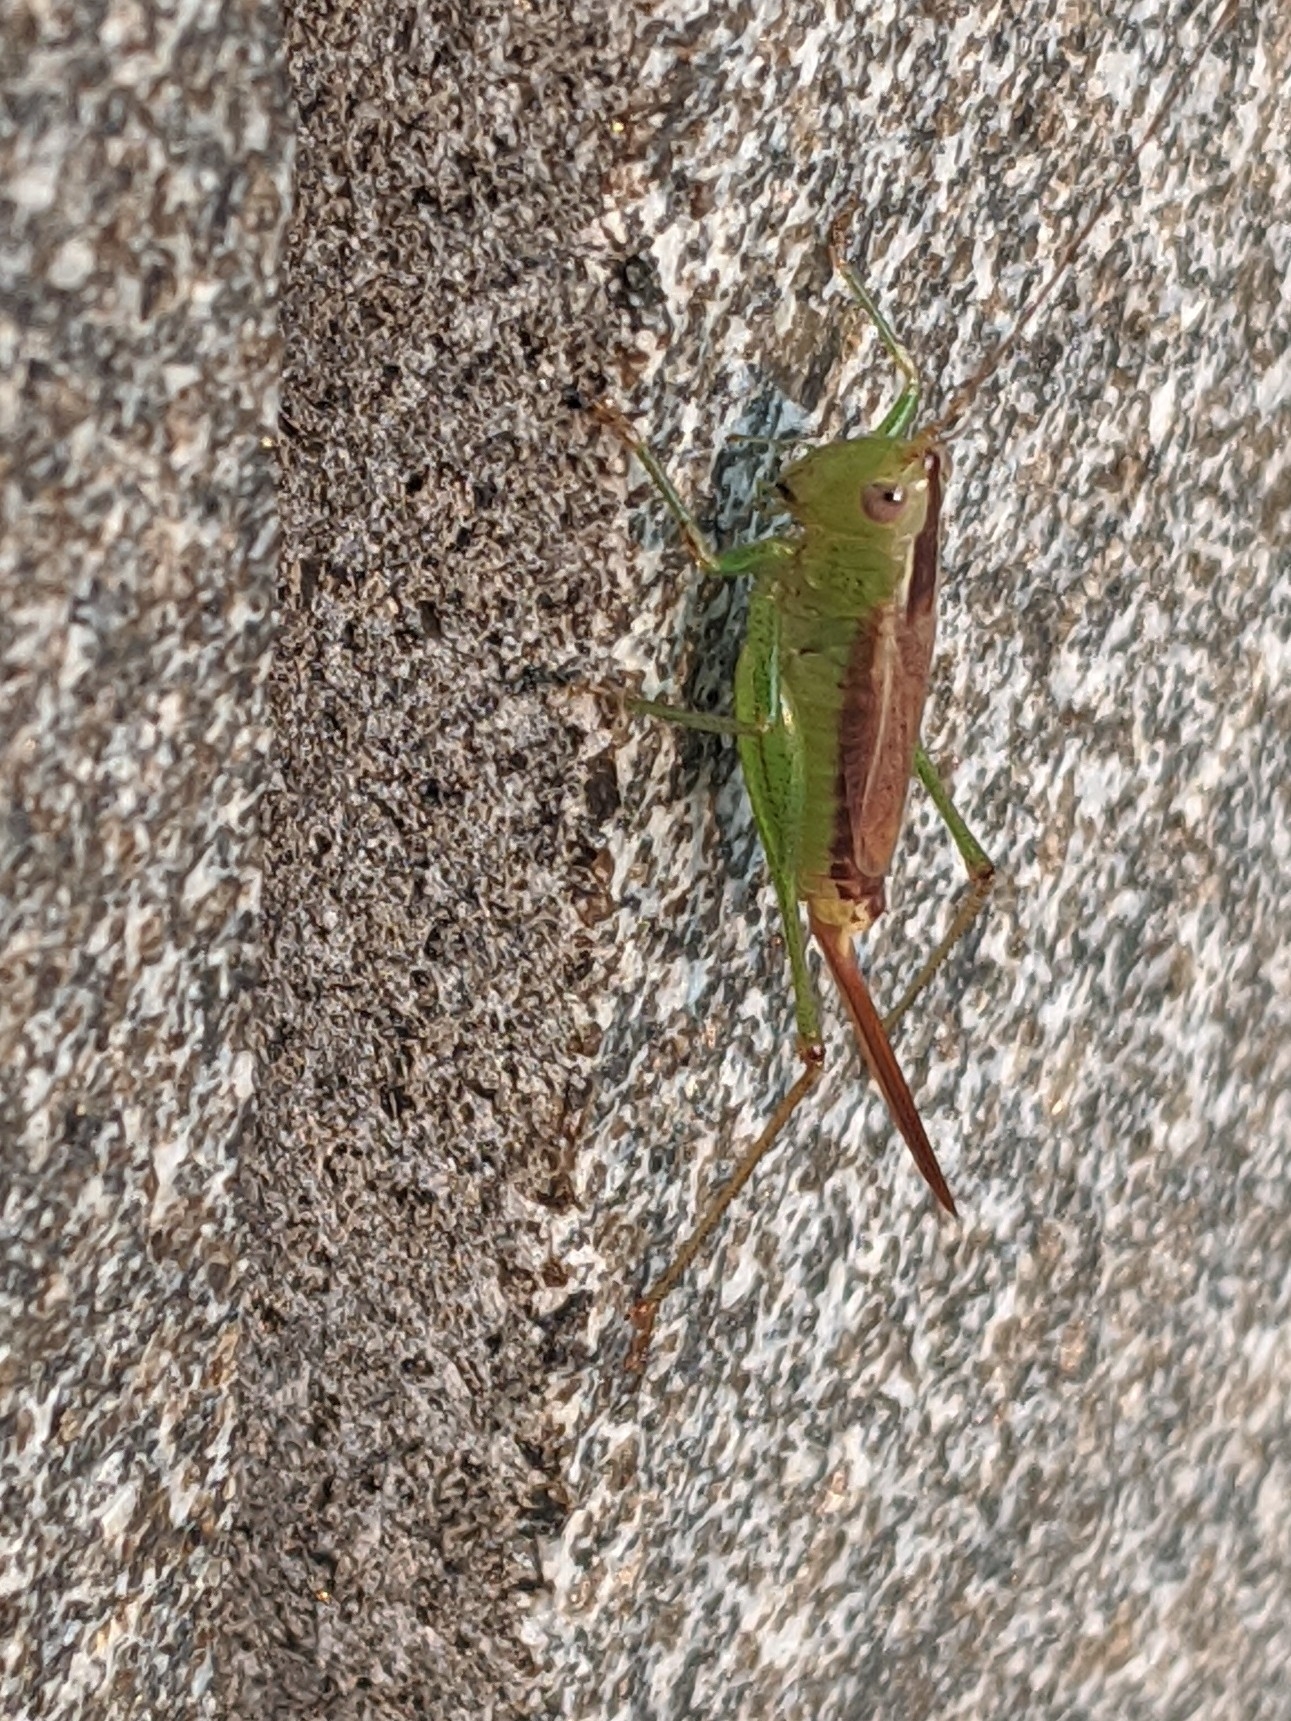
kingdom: Animalia
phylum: Arthropoda
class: Insecta
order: Orthoptera
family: Tettigoniidae
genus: Conocephalus
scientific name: Conocephalus brevipennis
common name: Short-winged meadow katydid
